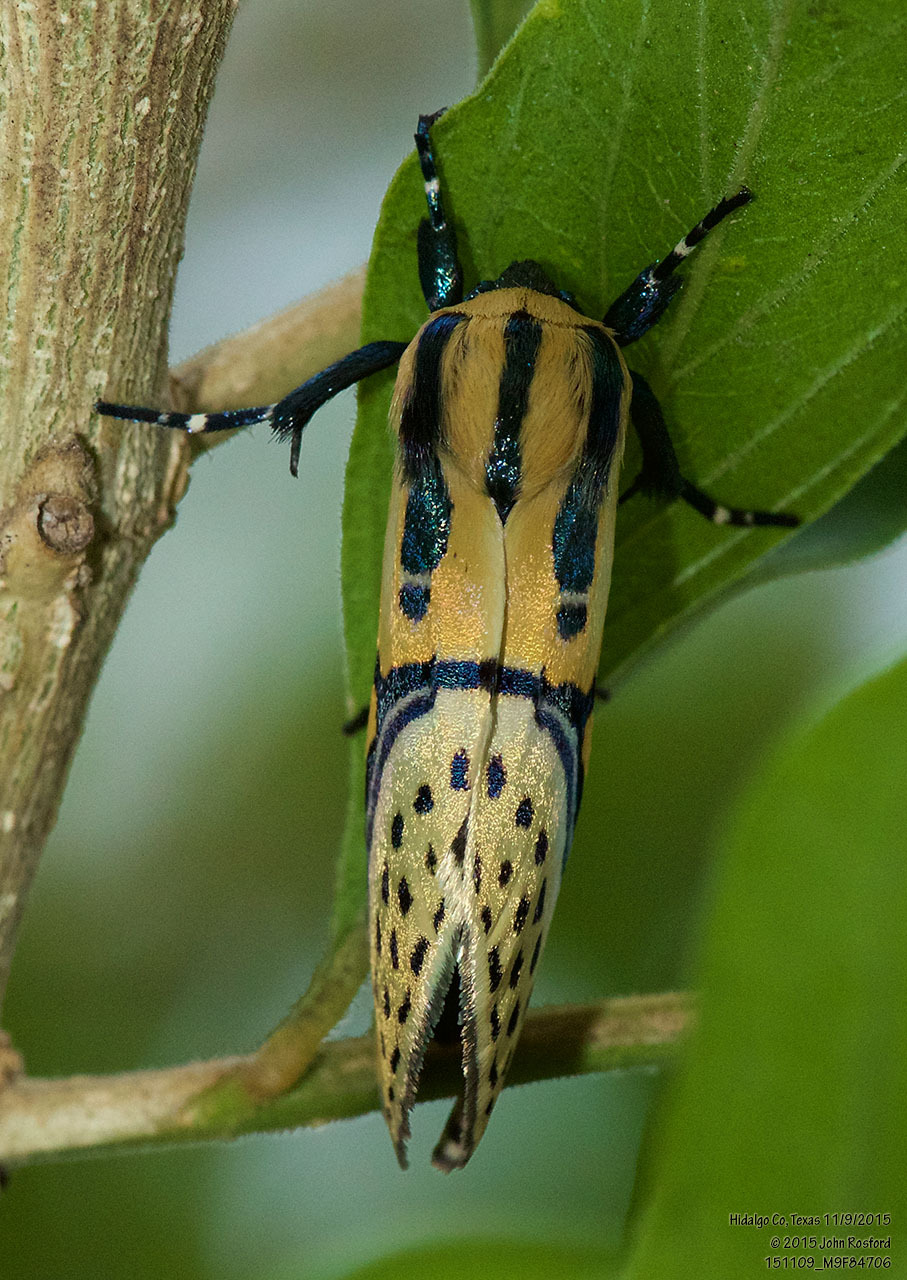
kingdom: Animalia
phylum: Arthropoda
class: Insecta
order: Lepidoptera
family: Erebidae
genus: Diphthera
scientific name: Diphthera festiva
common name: Hieroglyphic moth
